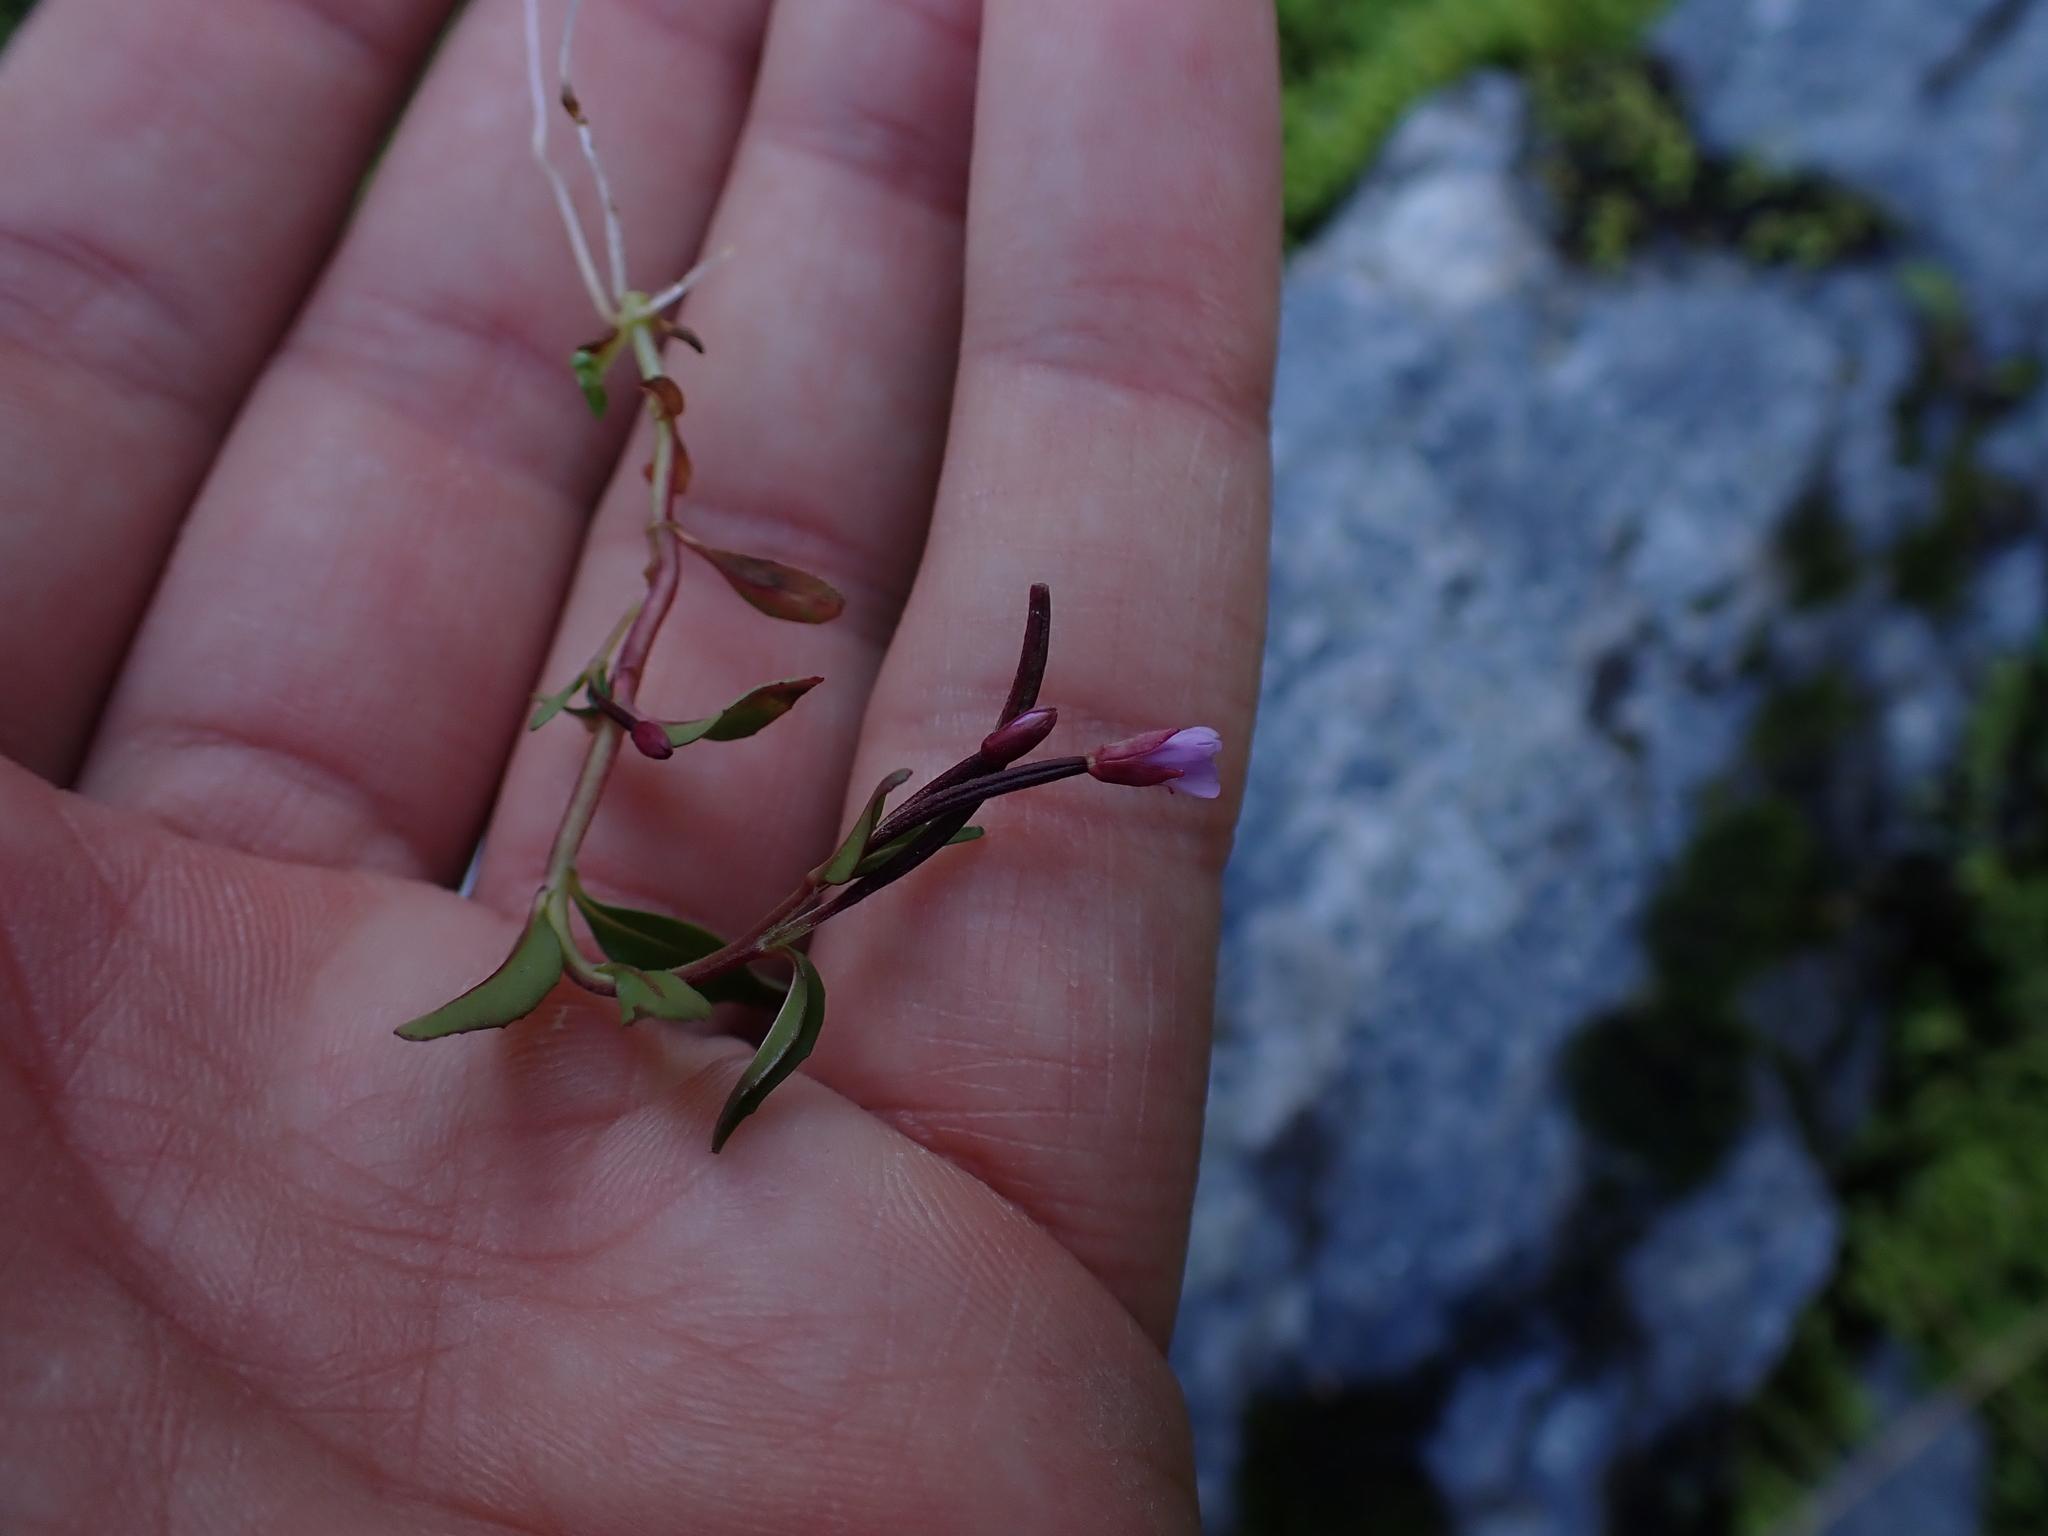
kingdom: Plantae
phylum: Tracheophyta
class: Magnoliopsida
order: Myrtales
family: Onagraceae
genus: Epilobium
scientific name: Epilobium anagallidifolium
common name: Alpine willowherb
